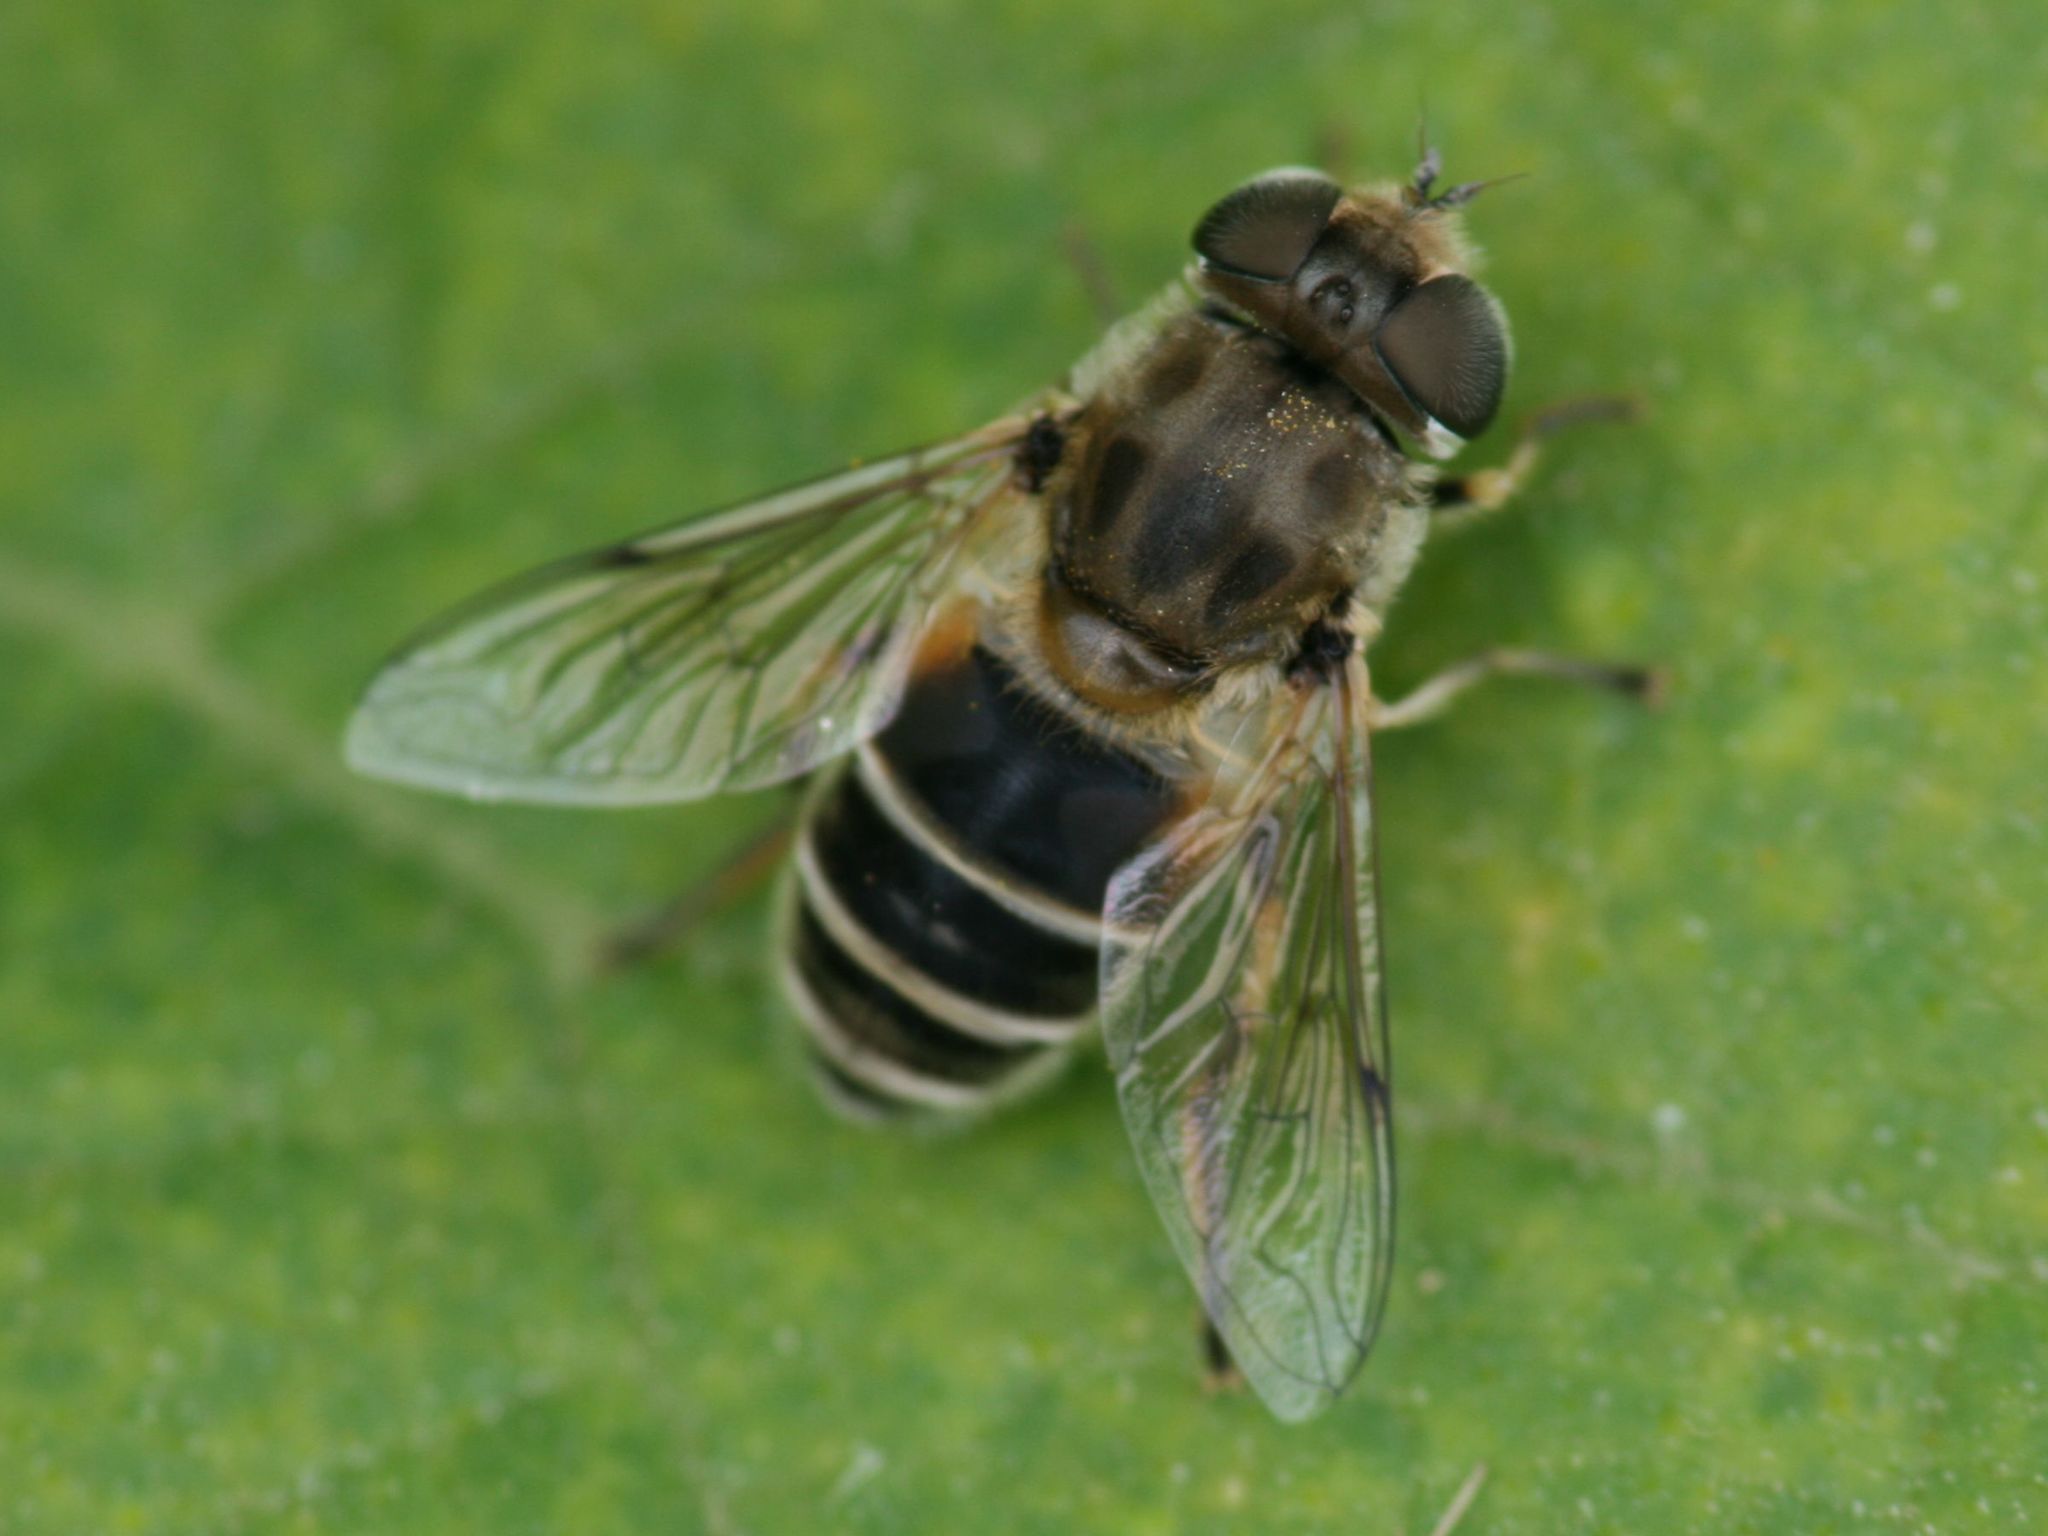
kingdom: Animalia
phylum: Arthropoda
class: Insecta
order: Diptera
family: Syrphidae
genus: Eristalis
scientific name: Eristalis arbustorum
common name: Hover fly
